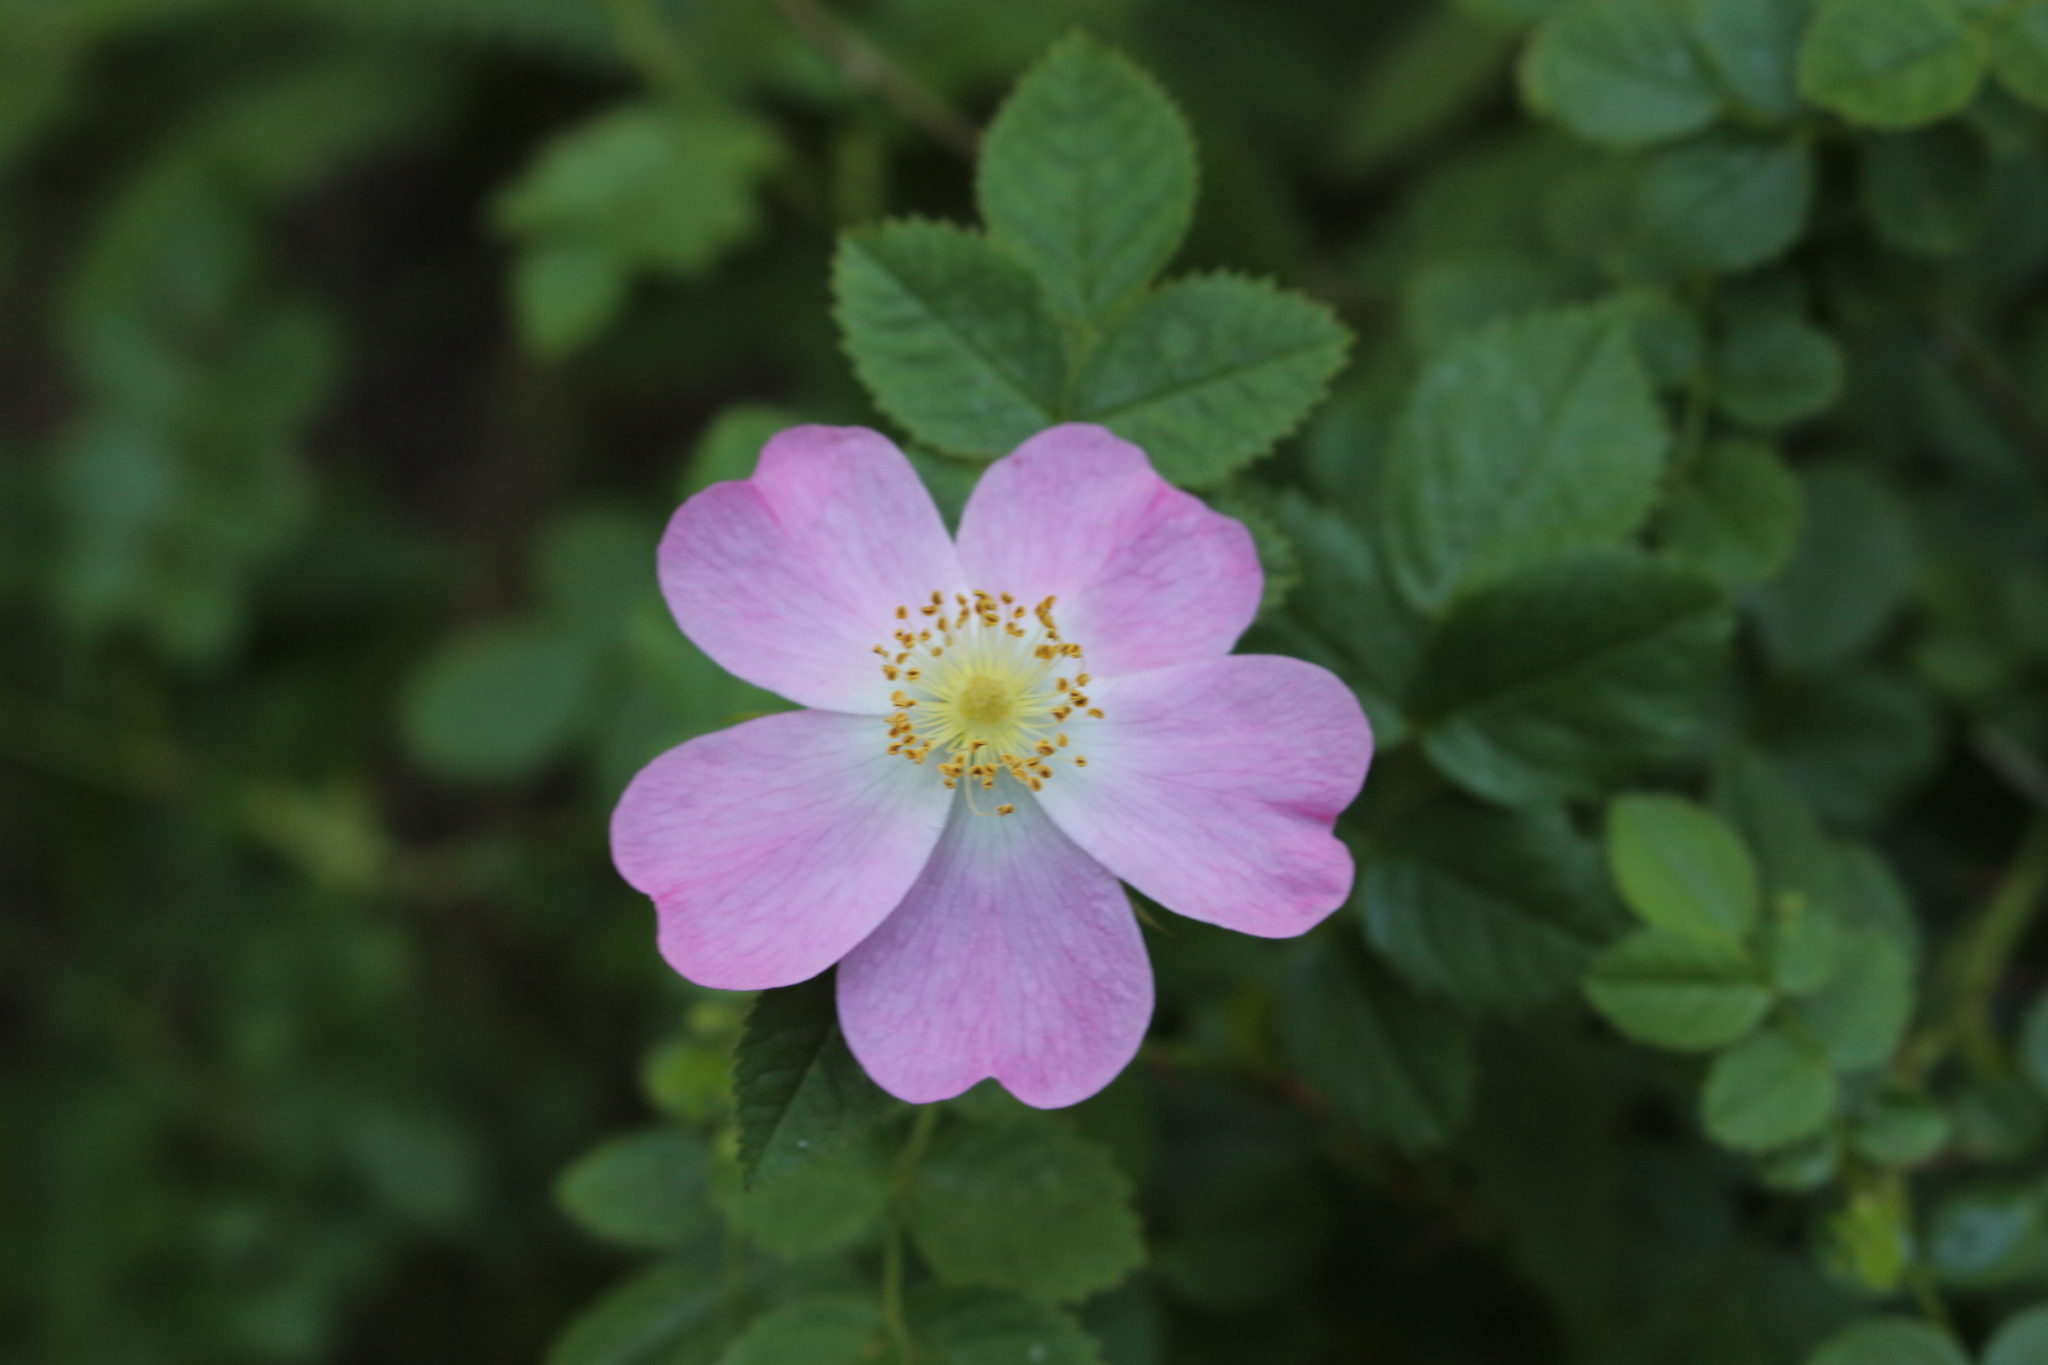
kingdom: Plantae
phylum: Tracheophyta
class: Magnoliopsida
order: Rosales
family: Rosaceae
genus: Rosa
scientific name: Rosa rubiginosa
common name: Sweet-briar
